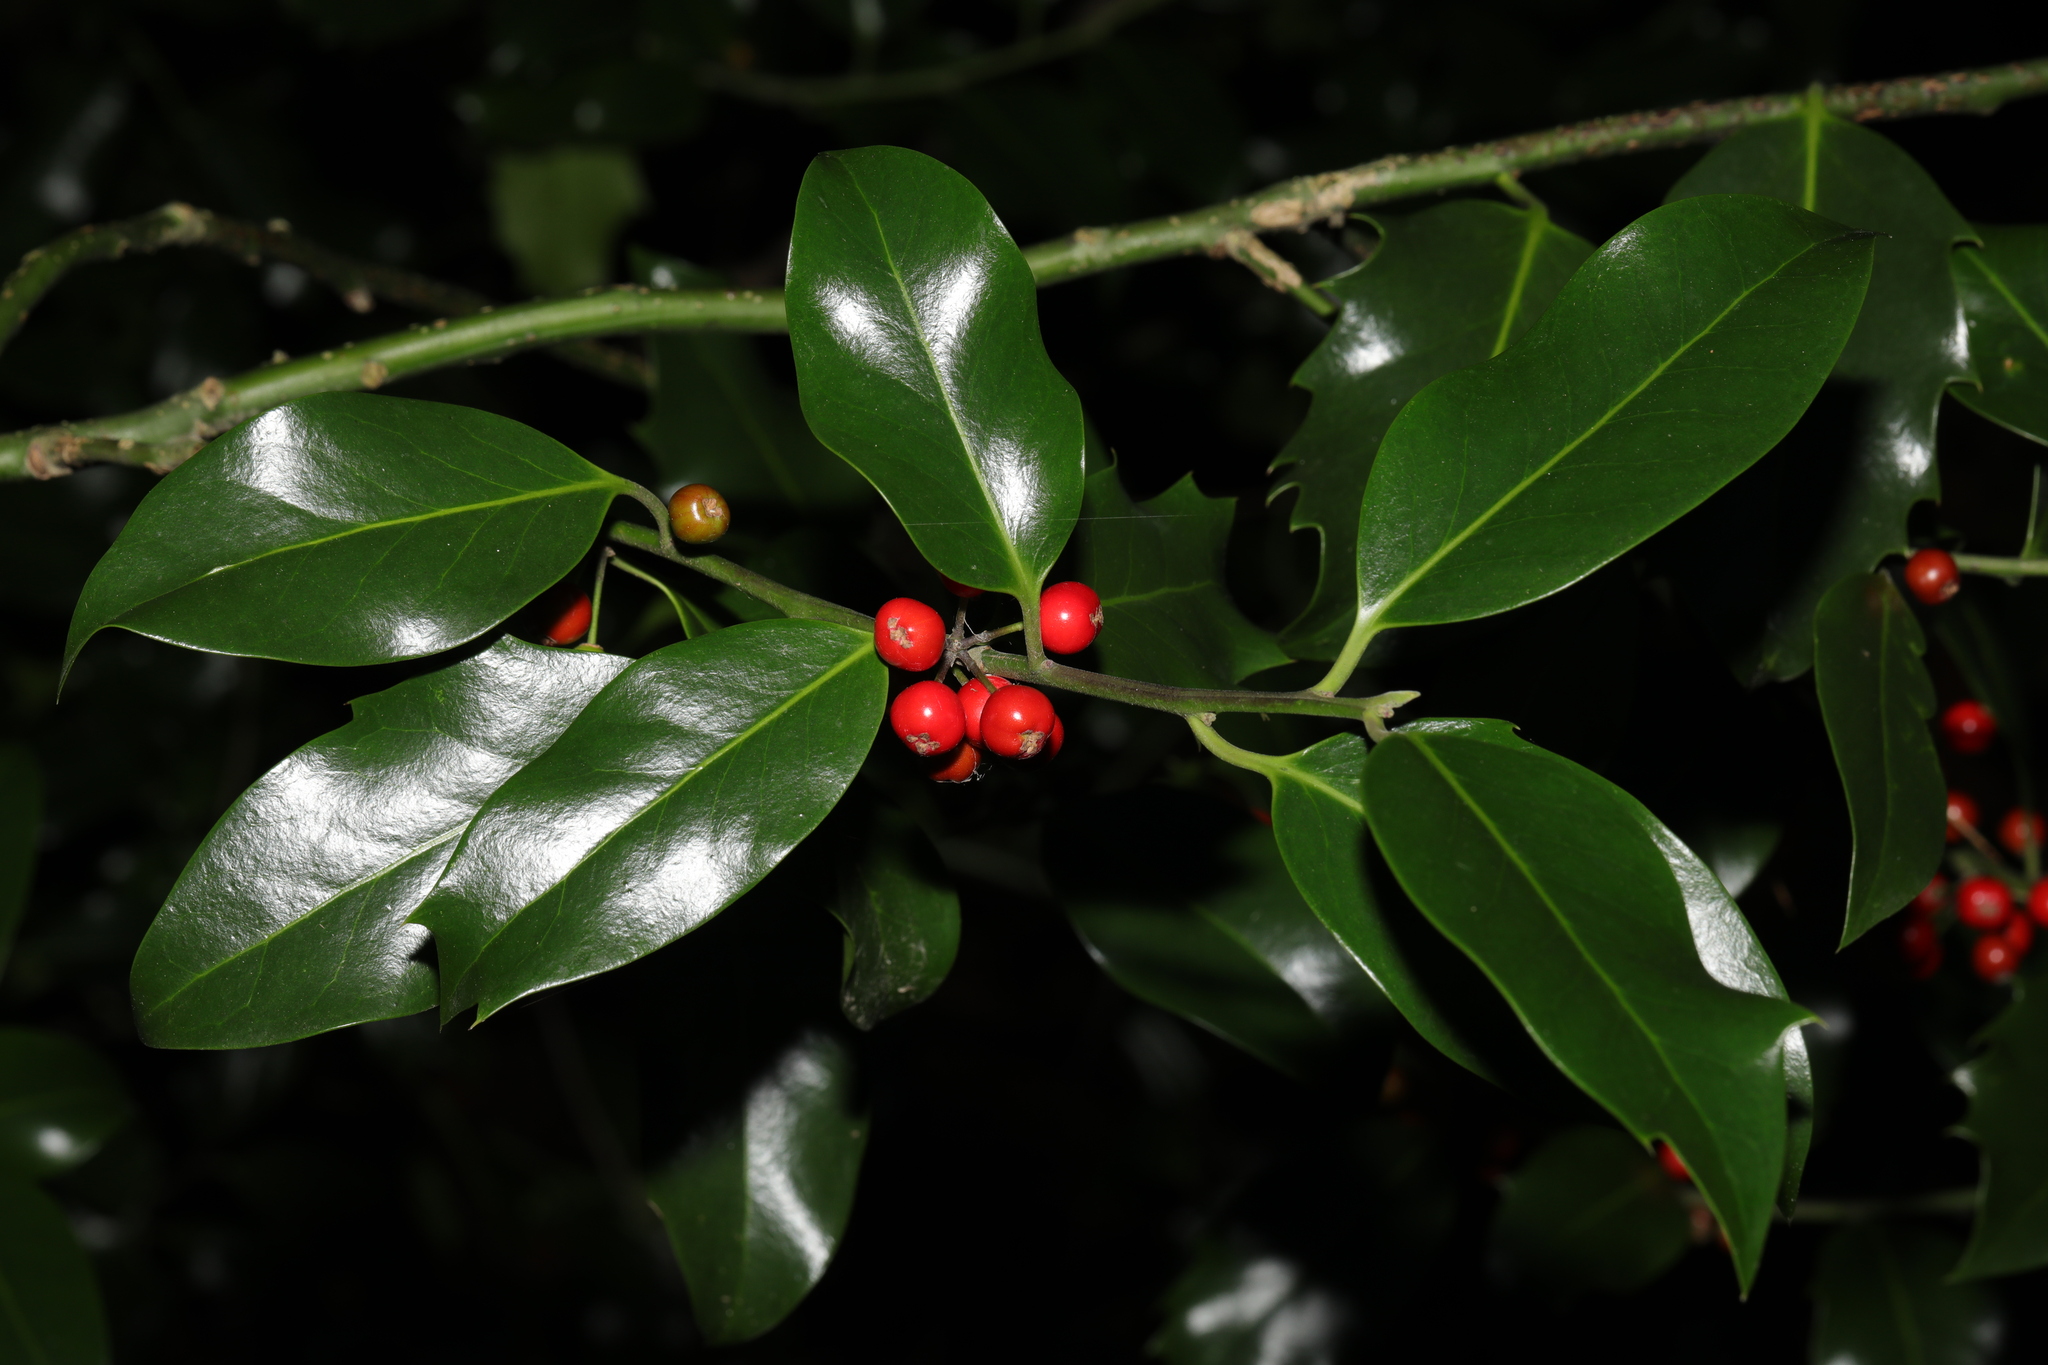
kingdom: Plantae
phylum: Tracheophyta
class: Magnoliopsida
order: Aquifoliales
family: Aquifoliaceae
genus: Ilex
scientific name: Ilex aquifolium
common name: English holly
